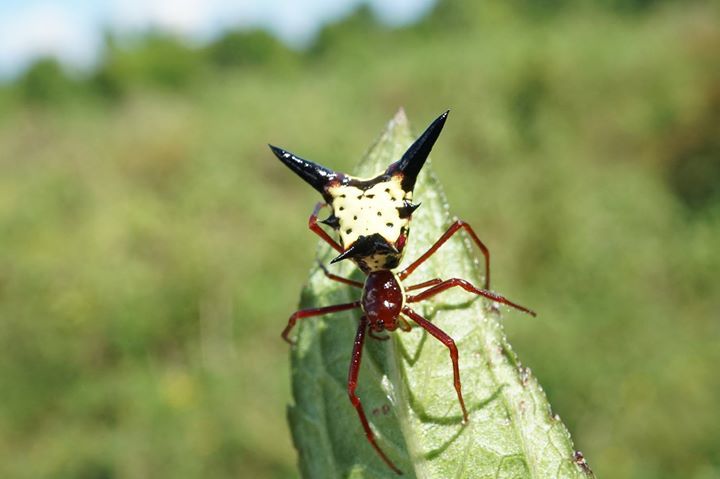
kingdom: Animalia
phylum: Arthropoda
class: Arachnida
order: Araneae
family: Araneidae
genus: Micrathena
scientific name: Micrathena sagittata
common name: Orb weavers
